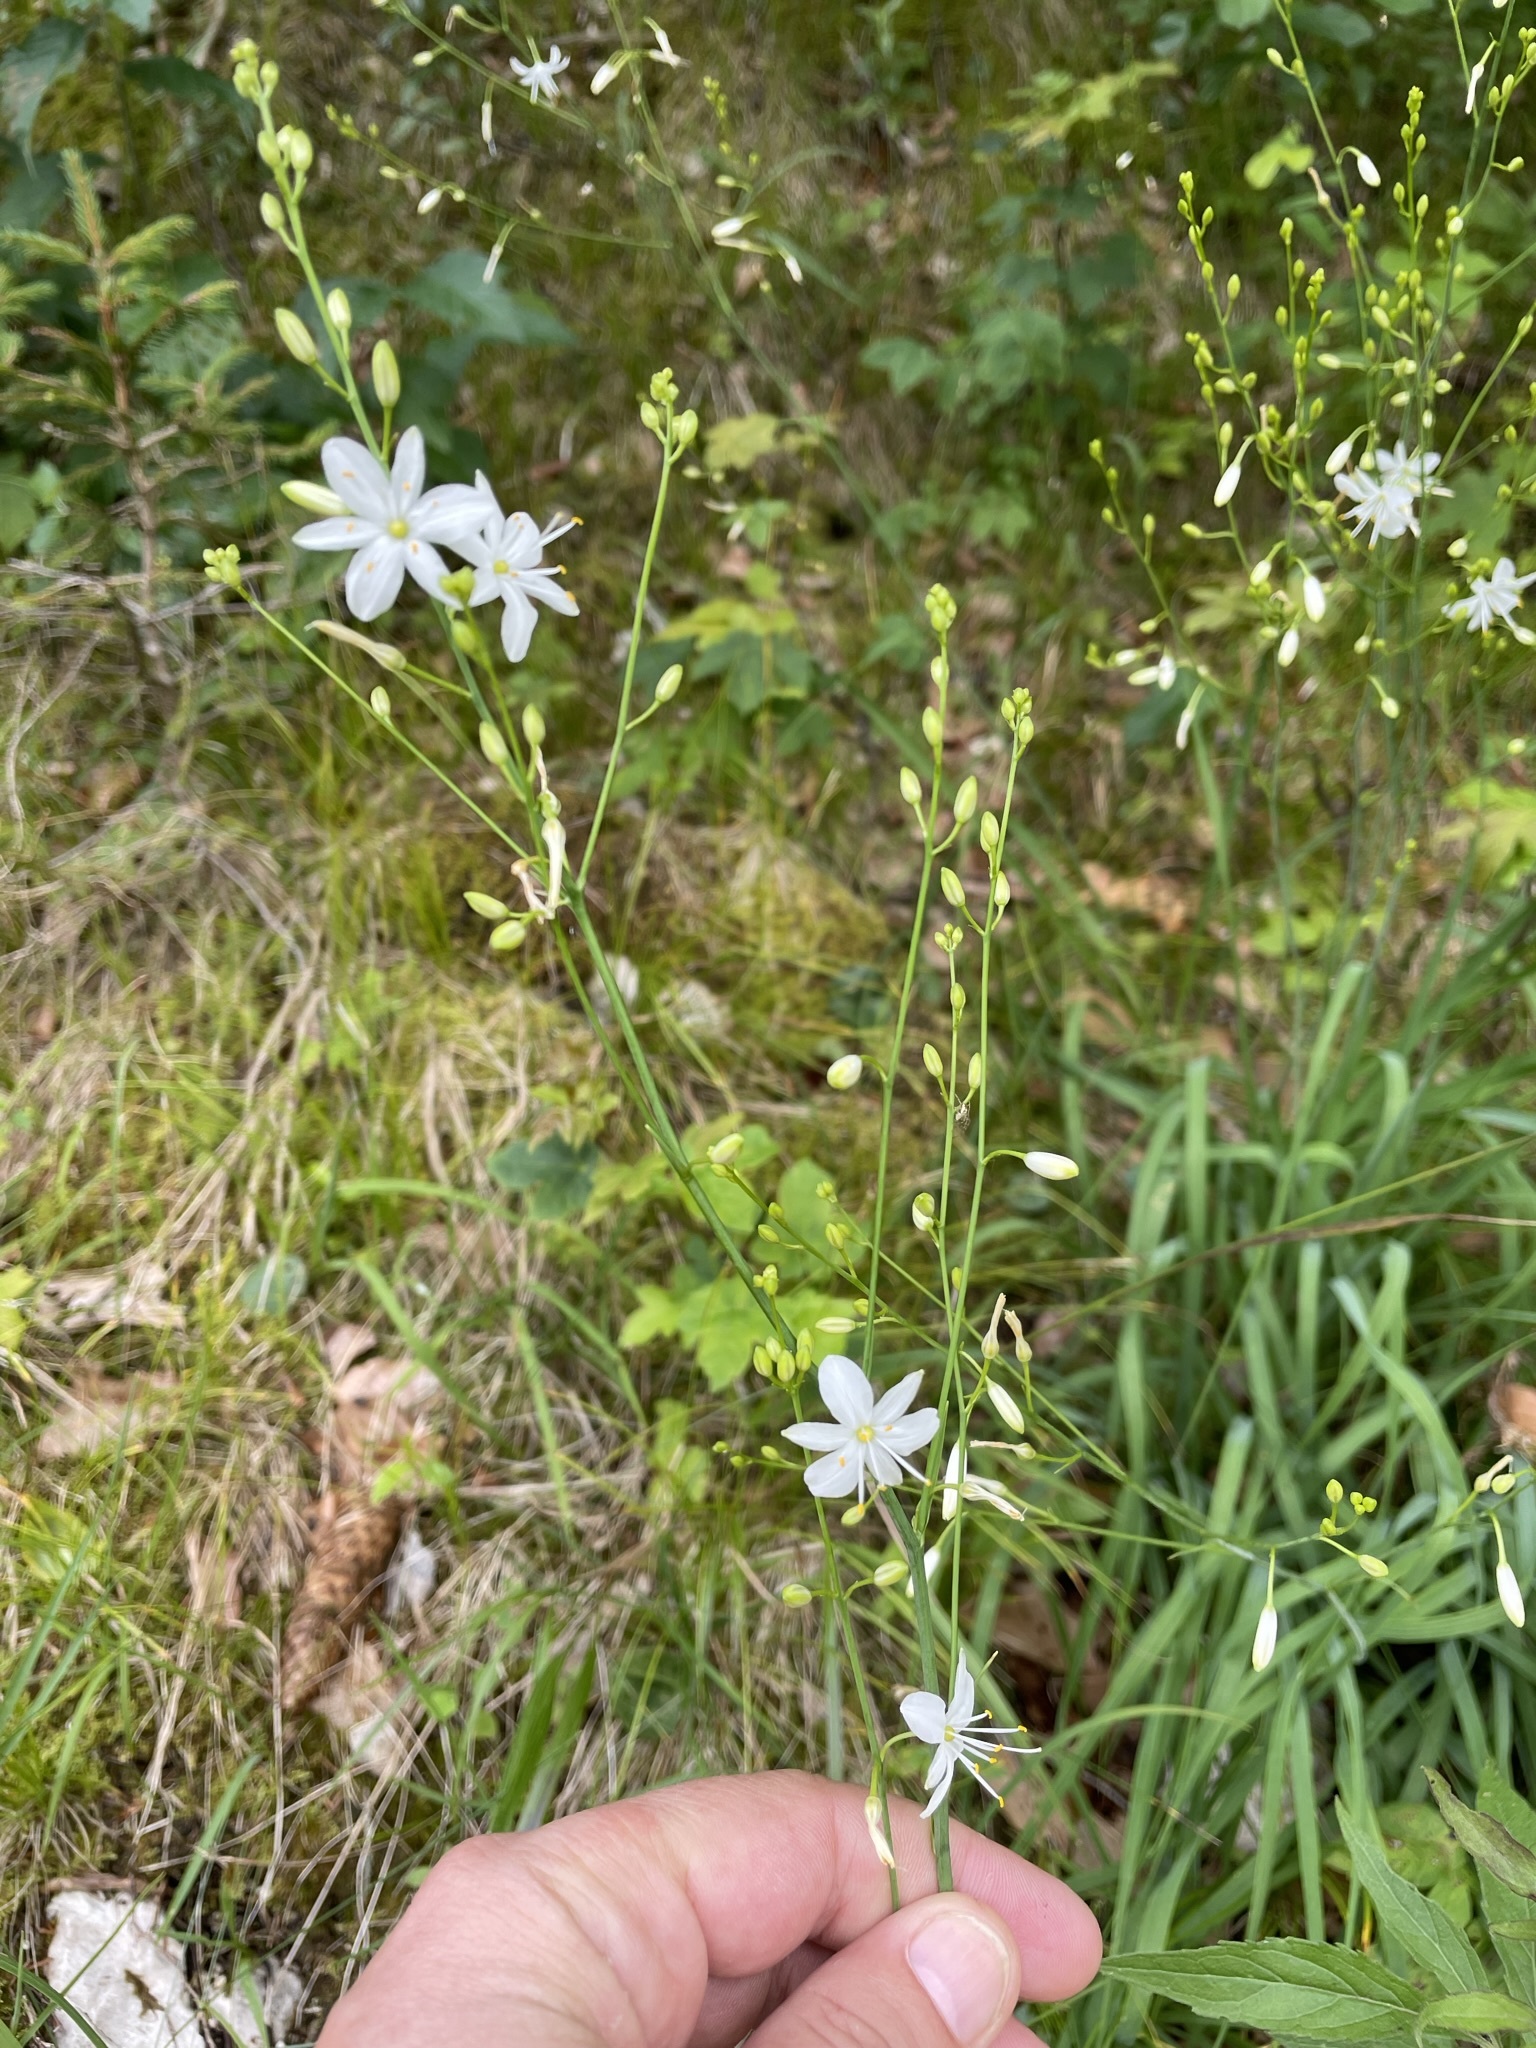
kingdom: Plantae
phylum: Tracheophyta
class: Liliopsida
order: Asparagales
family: Asparagaceae
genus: Anthericum
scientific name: Anthericum ramosum
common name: Branched st. bernard's-lily
